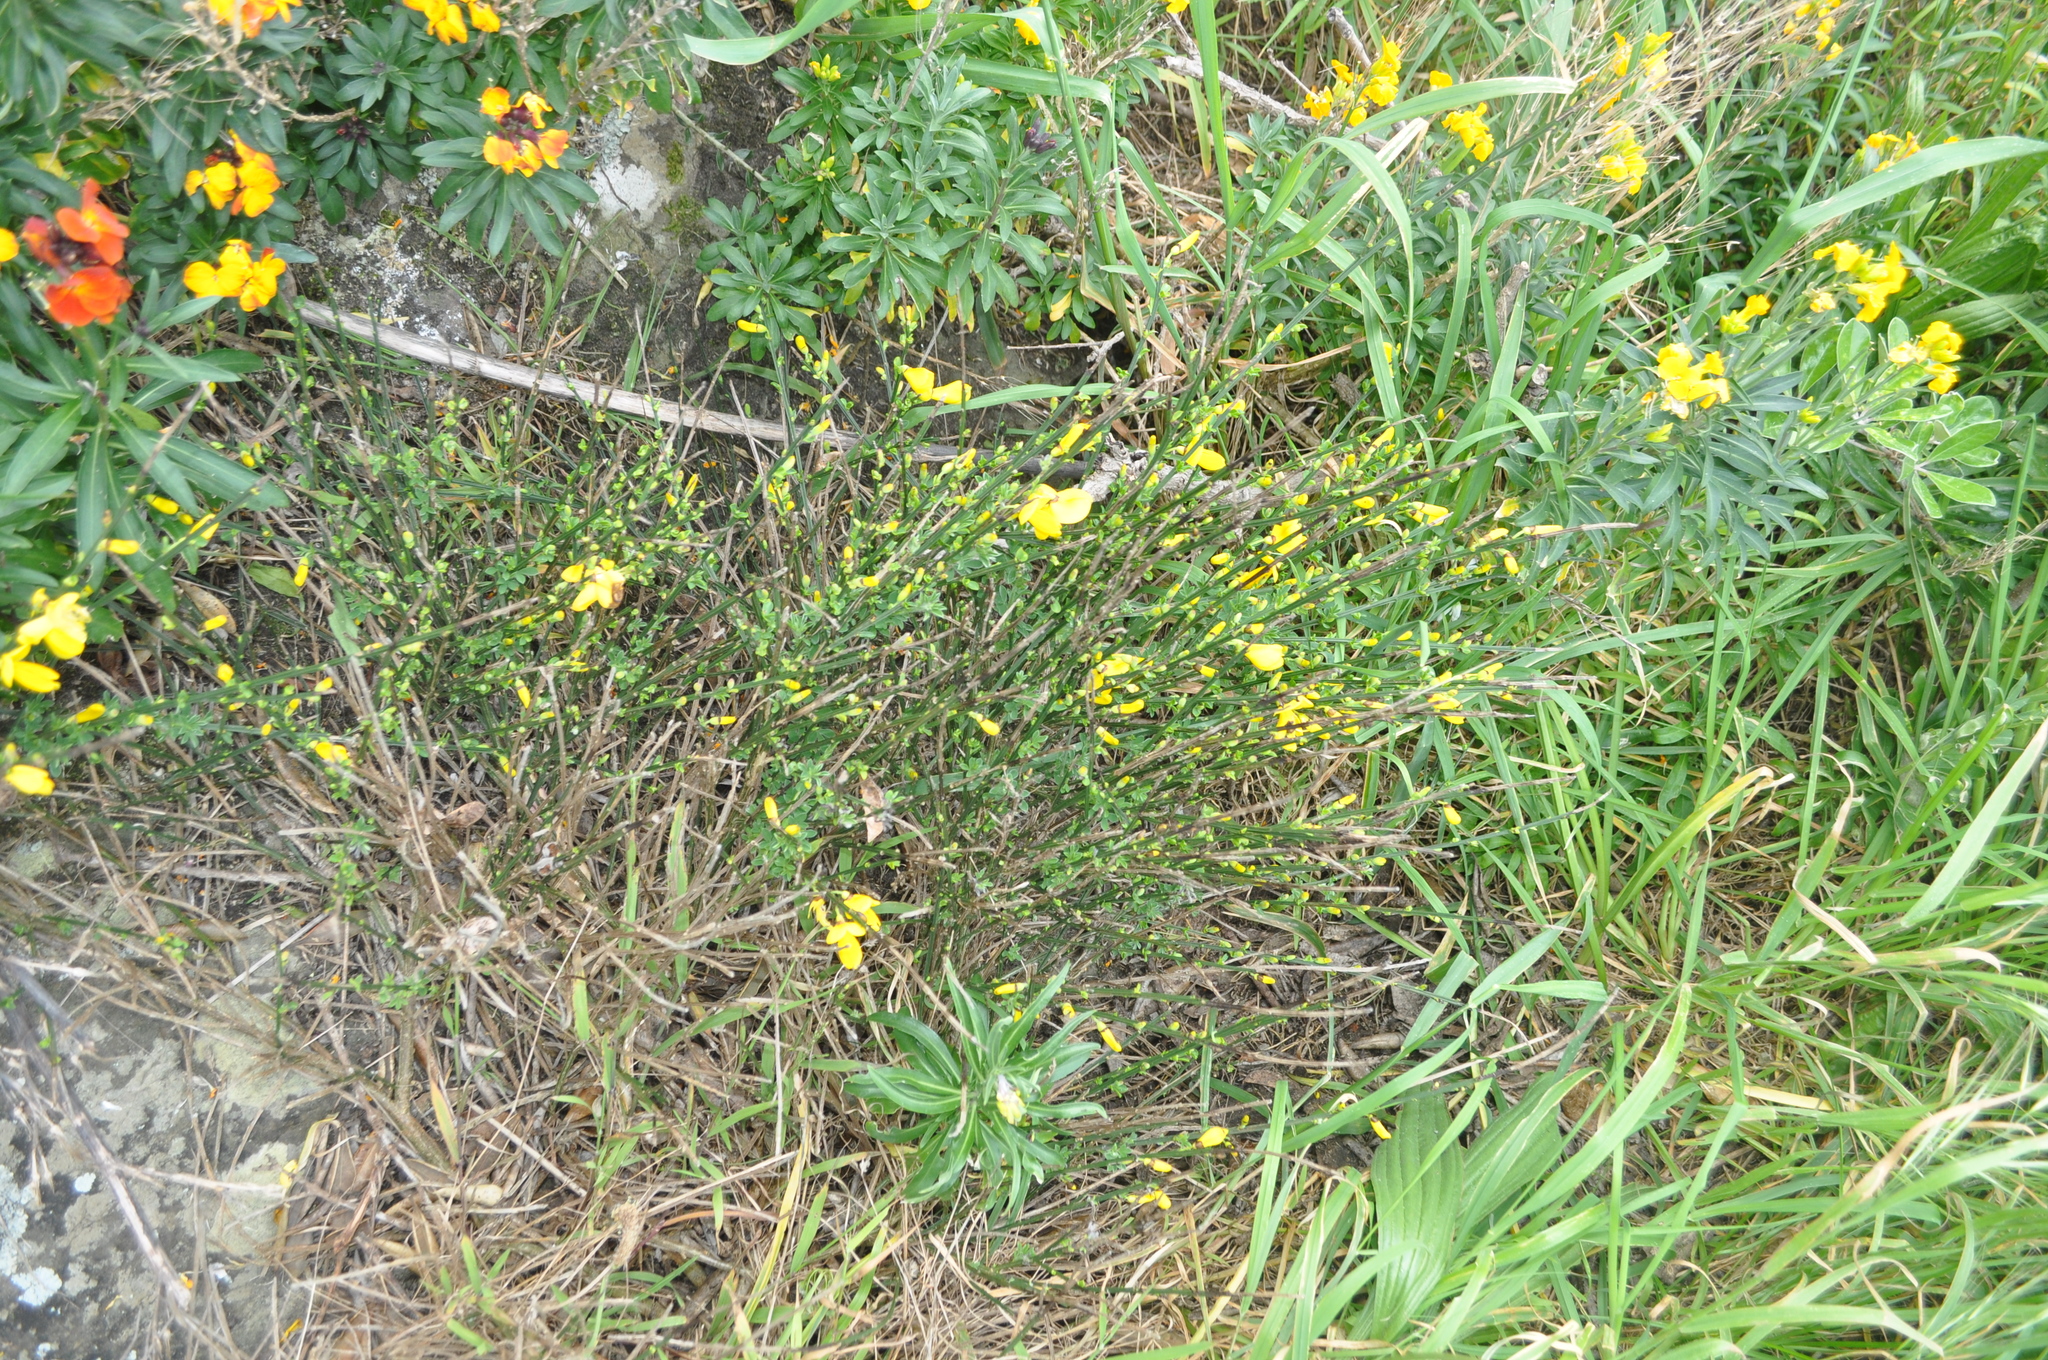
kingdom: Plantae
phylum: Tracheophyta
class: Magnoliopsida
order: Fabales
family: Fabaceae
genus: Cytisus
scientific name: Cytisus scoparius
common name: Scotch broom
